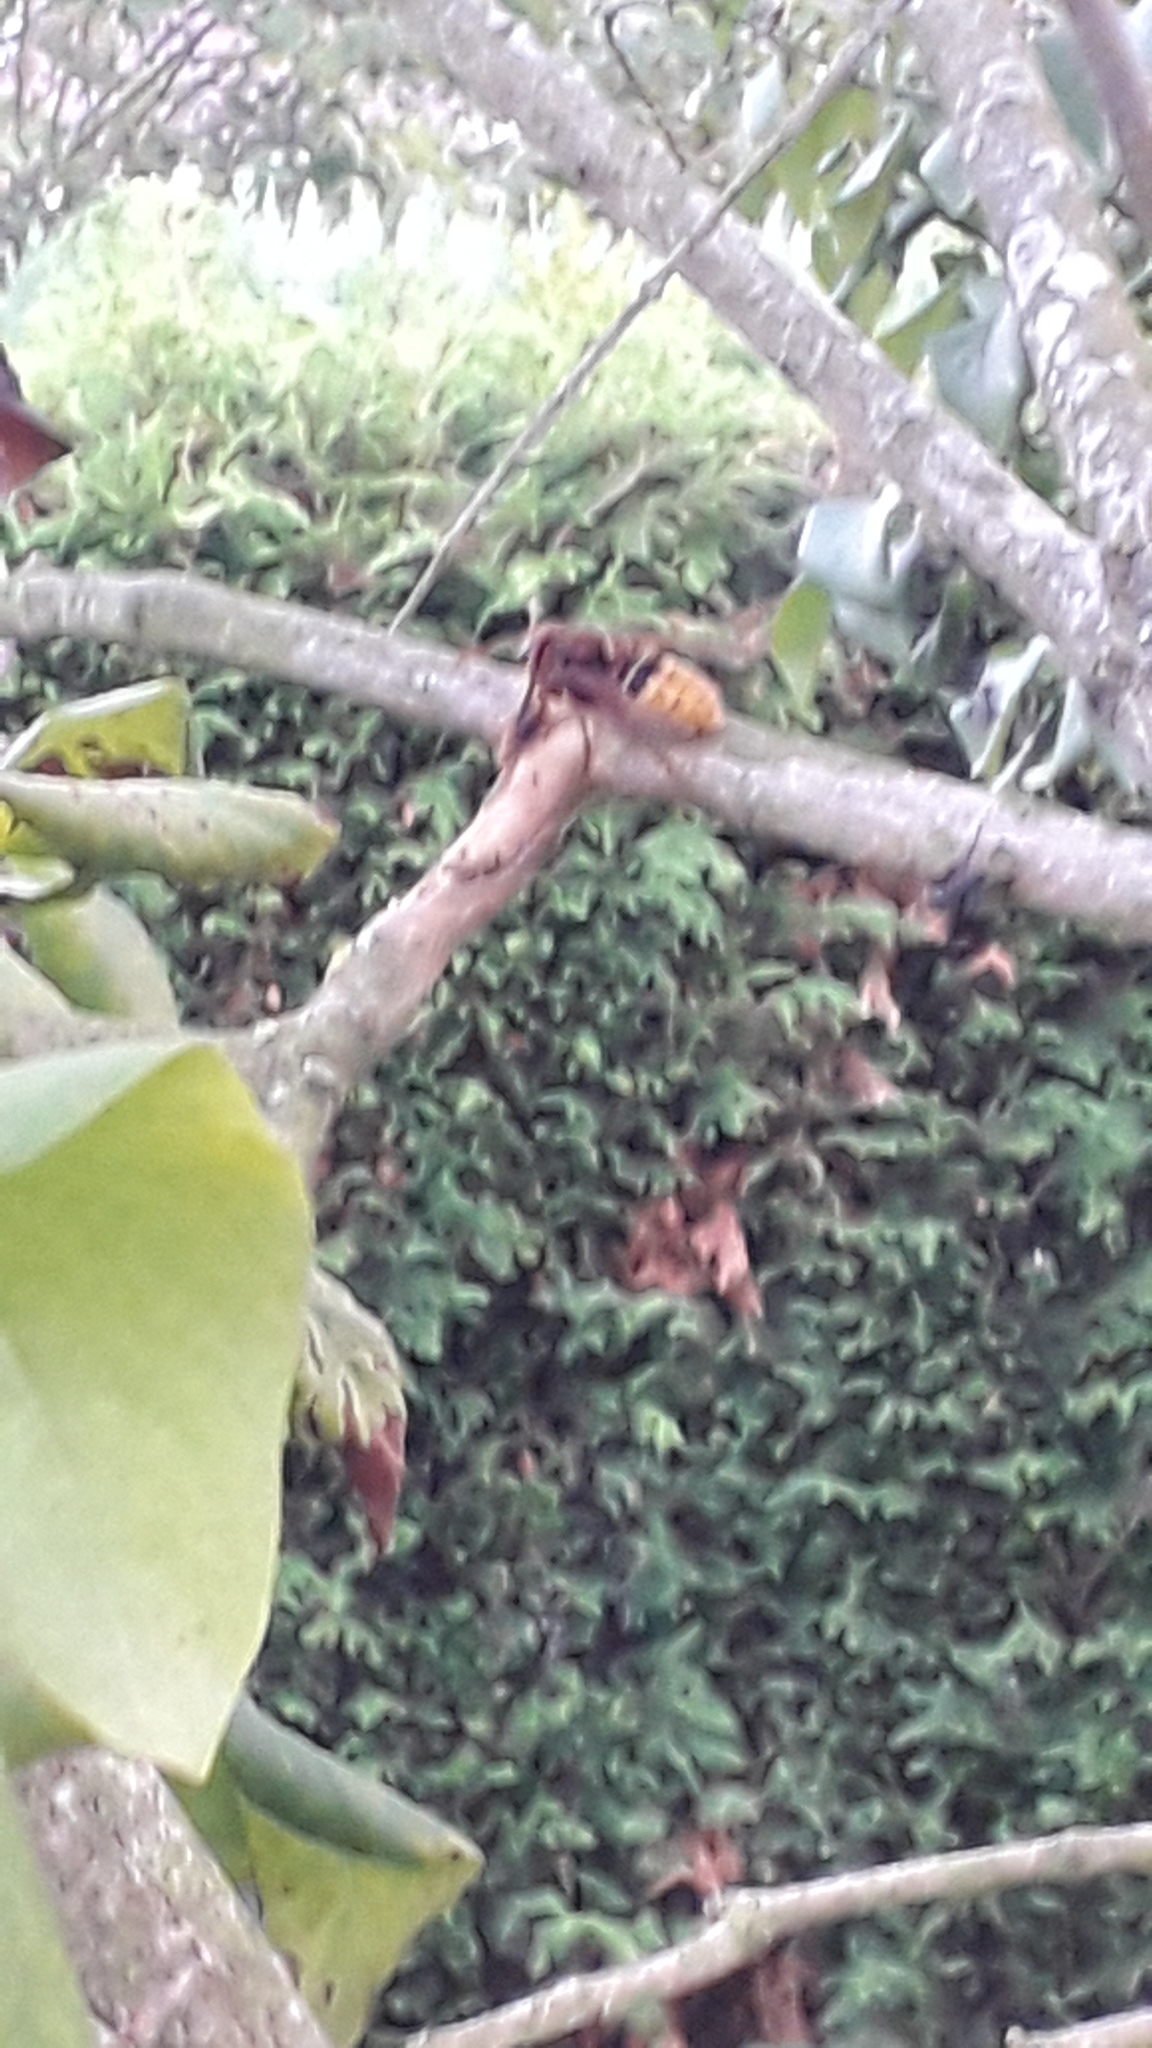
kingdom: Animalia
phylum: Arthropoda
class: Insecta
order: Hymenoptera
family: Vespidae
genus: Vespa
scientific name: Vespa crabro
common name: Hornet
